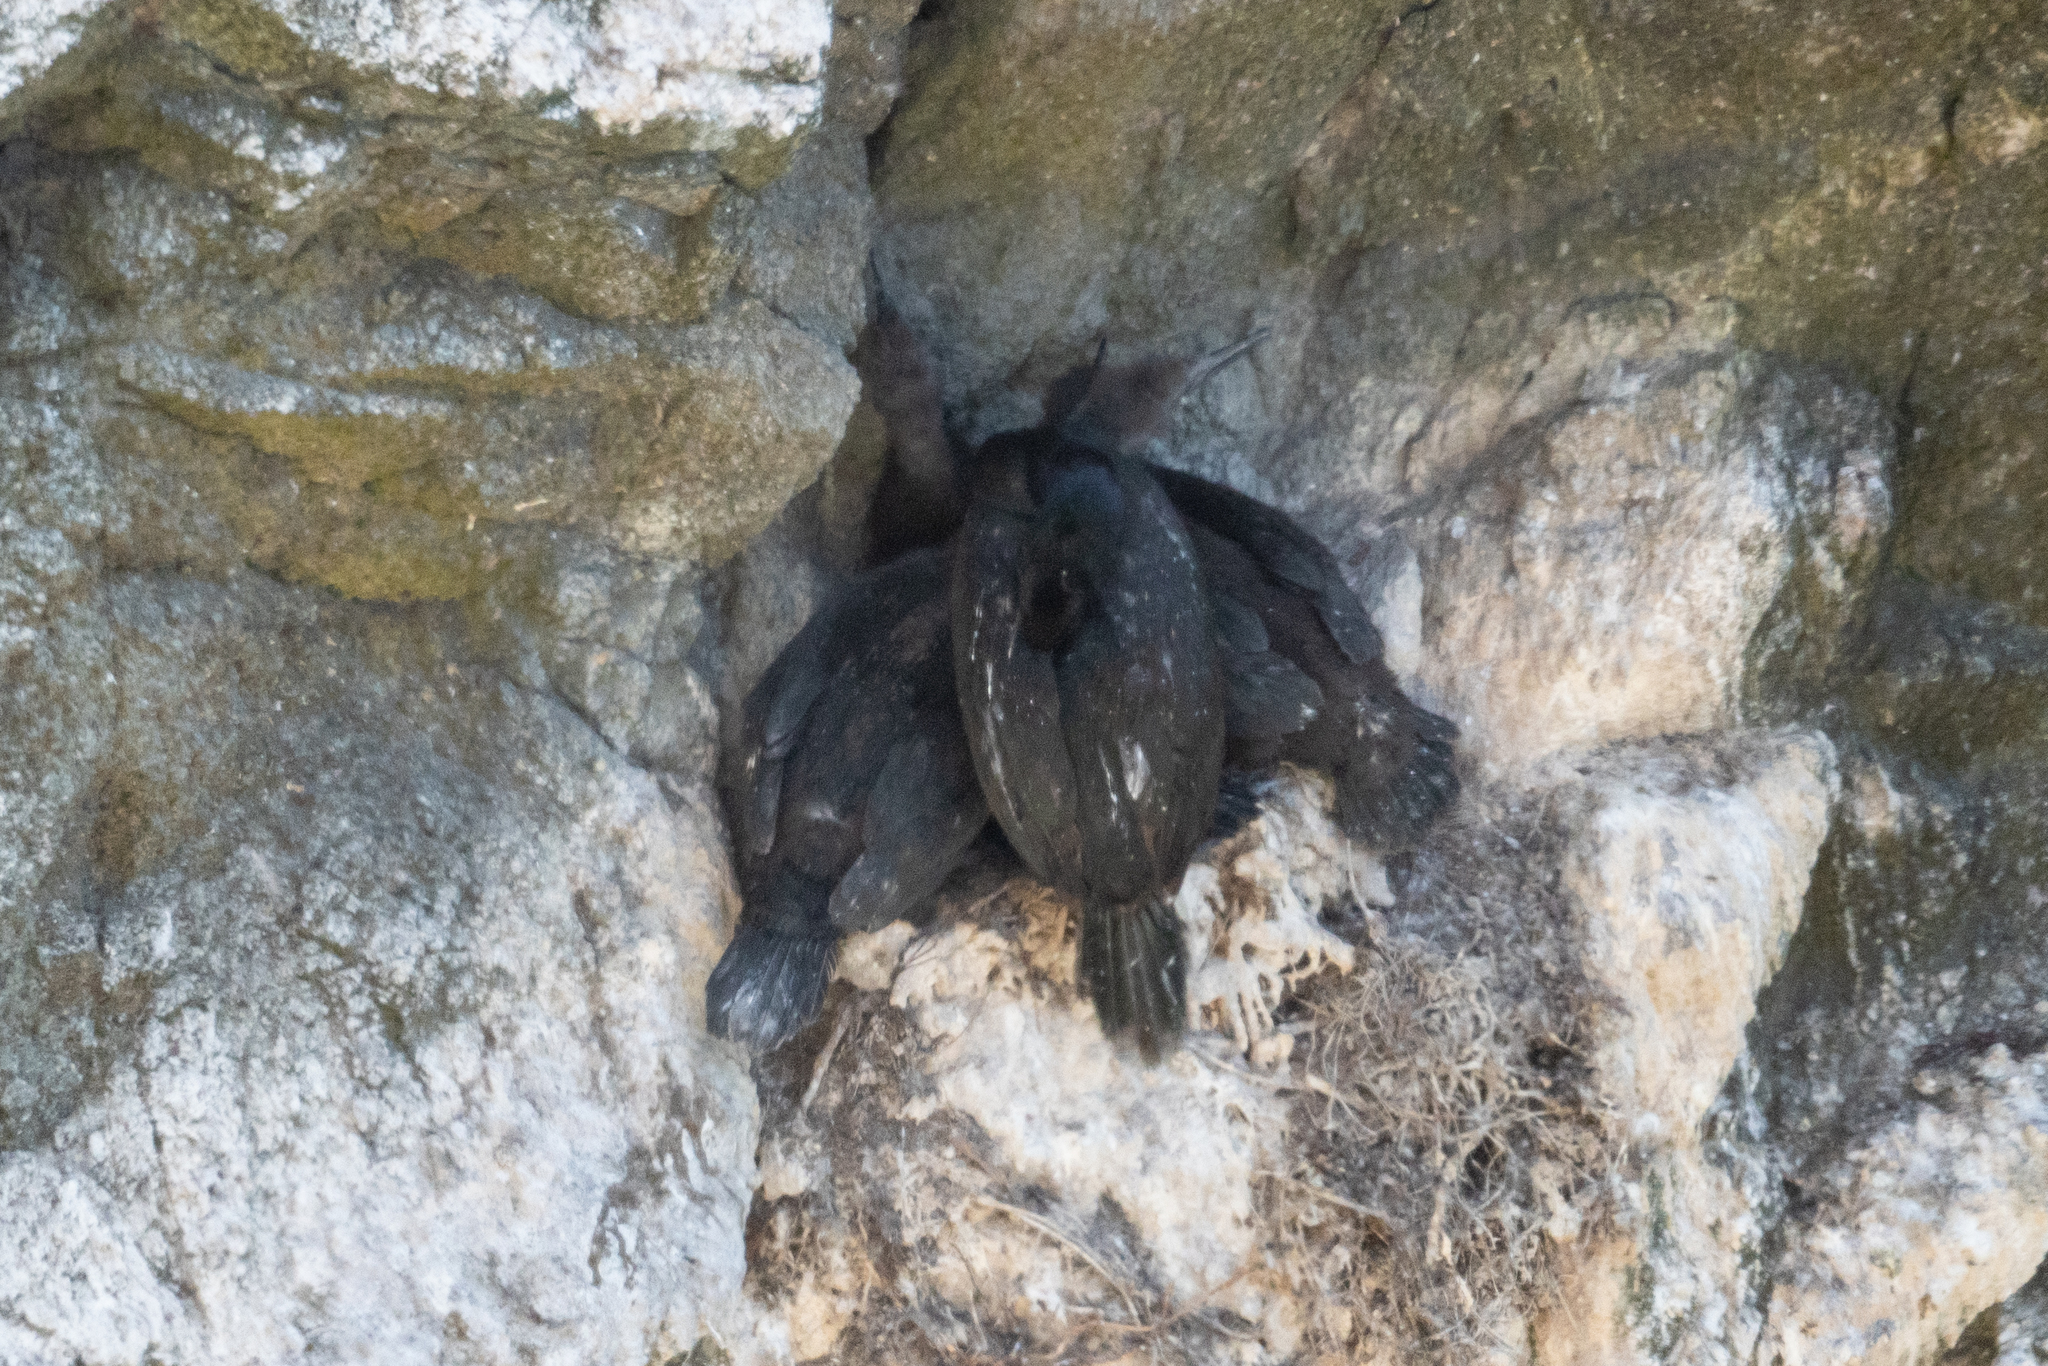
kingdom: Animalia
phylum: Chordata
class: Aves
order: Suliformes
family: Phalacrocoracidae
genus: Phalacrocorax
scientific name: Phalacrocorax pelagicus
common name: Pelagic cormorant
